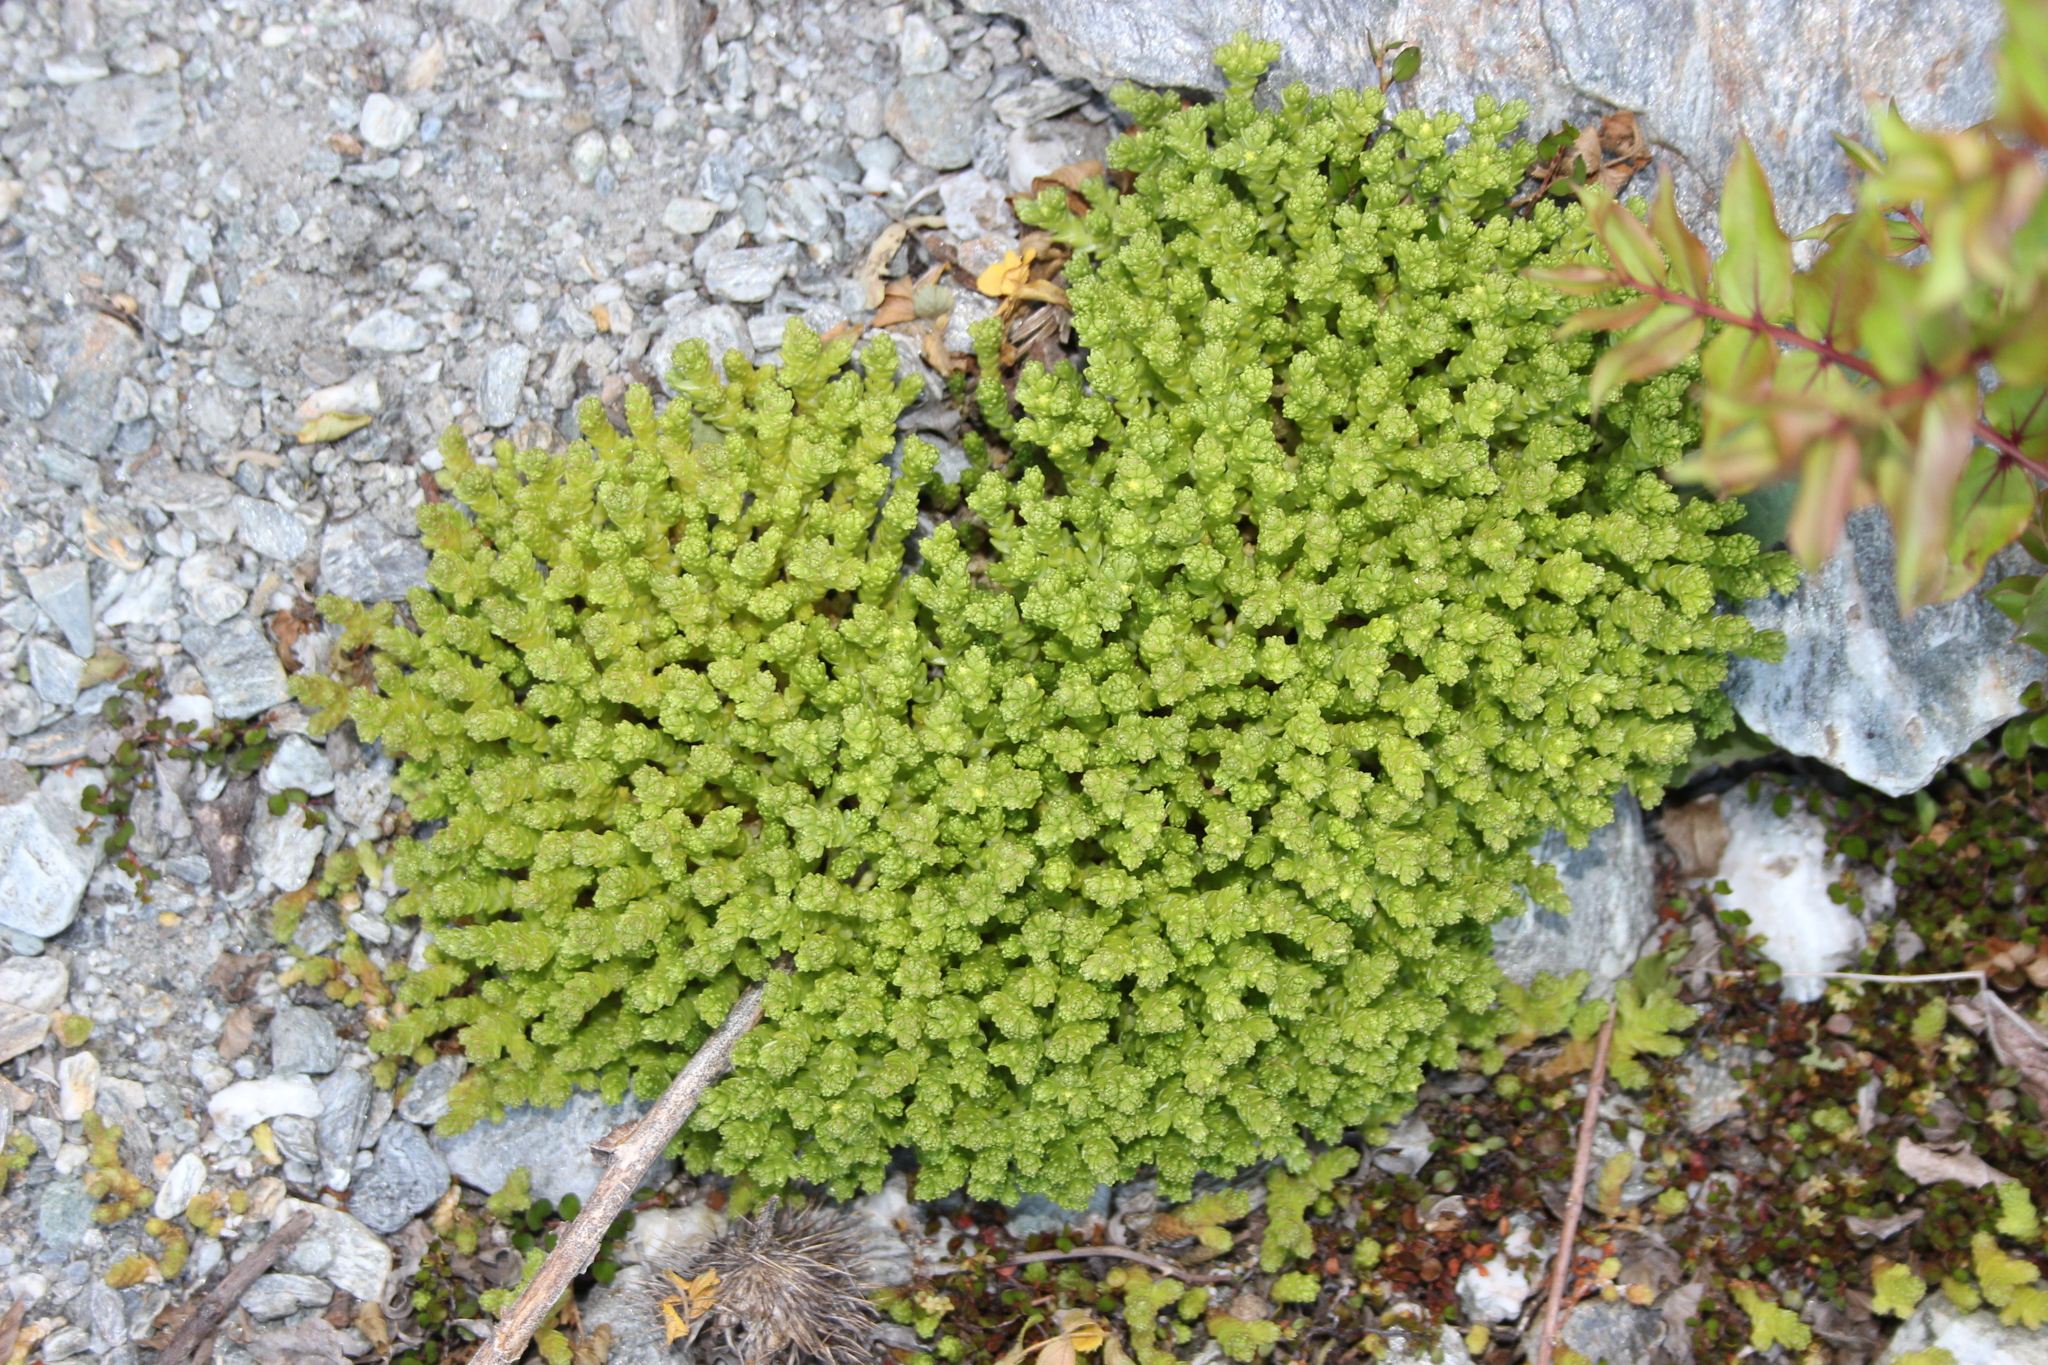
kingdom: Plantae
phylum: Tracheophyta
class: Magnoliopsida
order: Saxifragales
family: Crassulaceae
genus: Sedum
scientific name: Sedum acre
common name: Biting stonecrop
